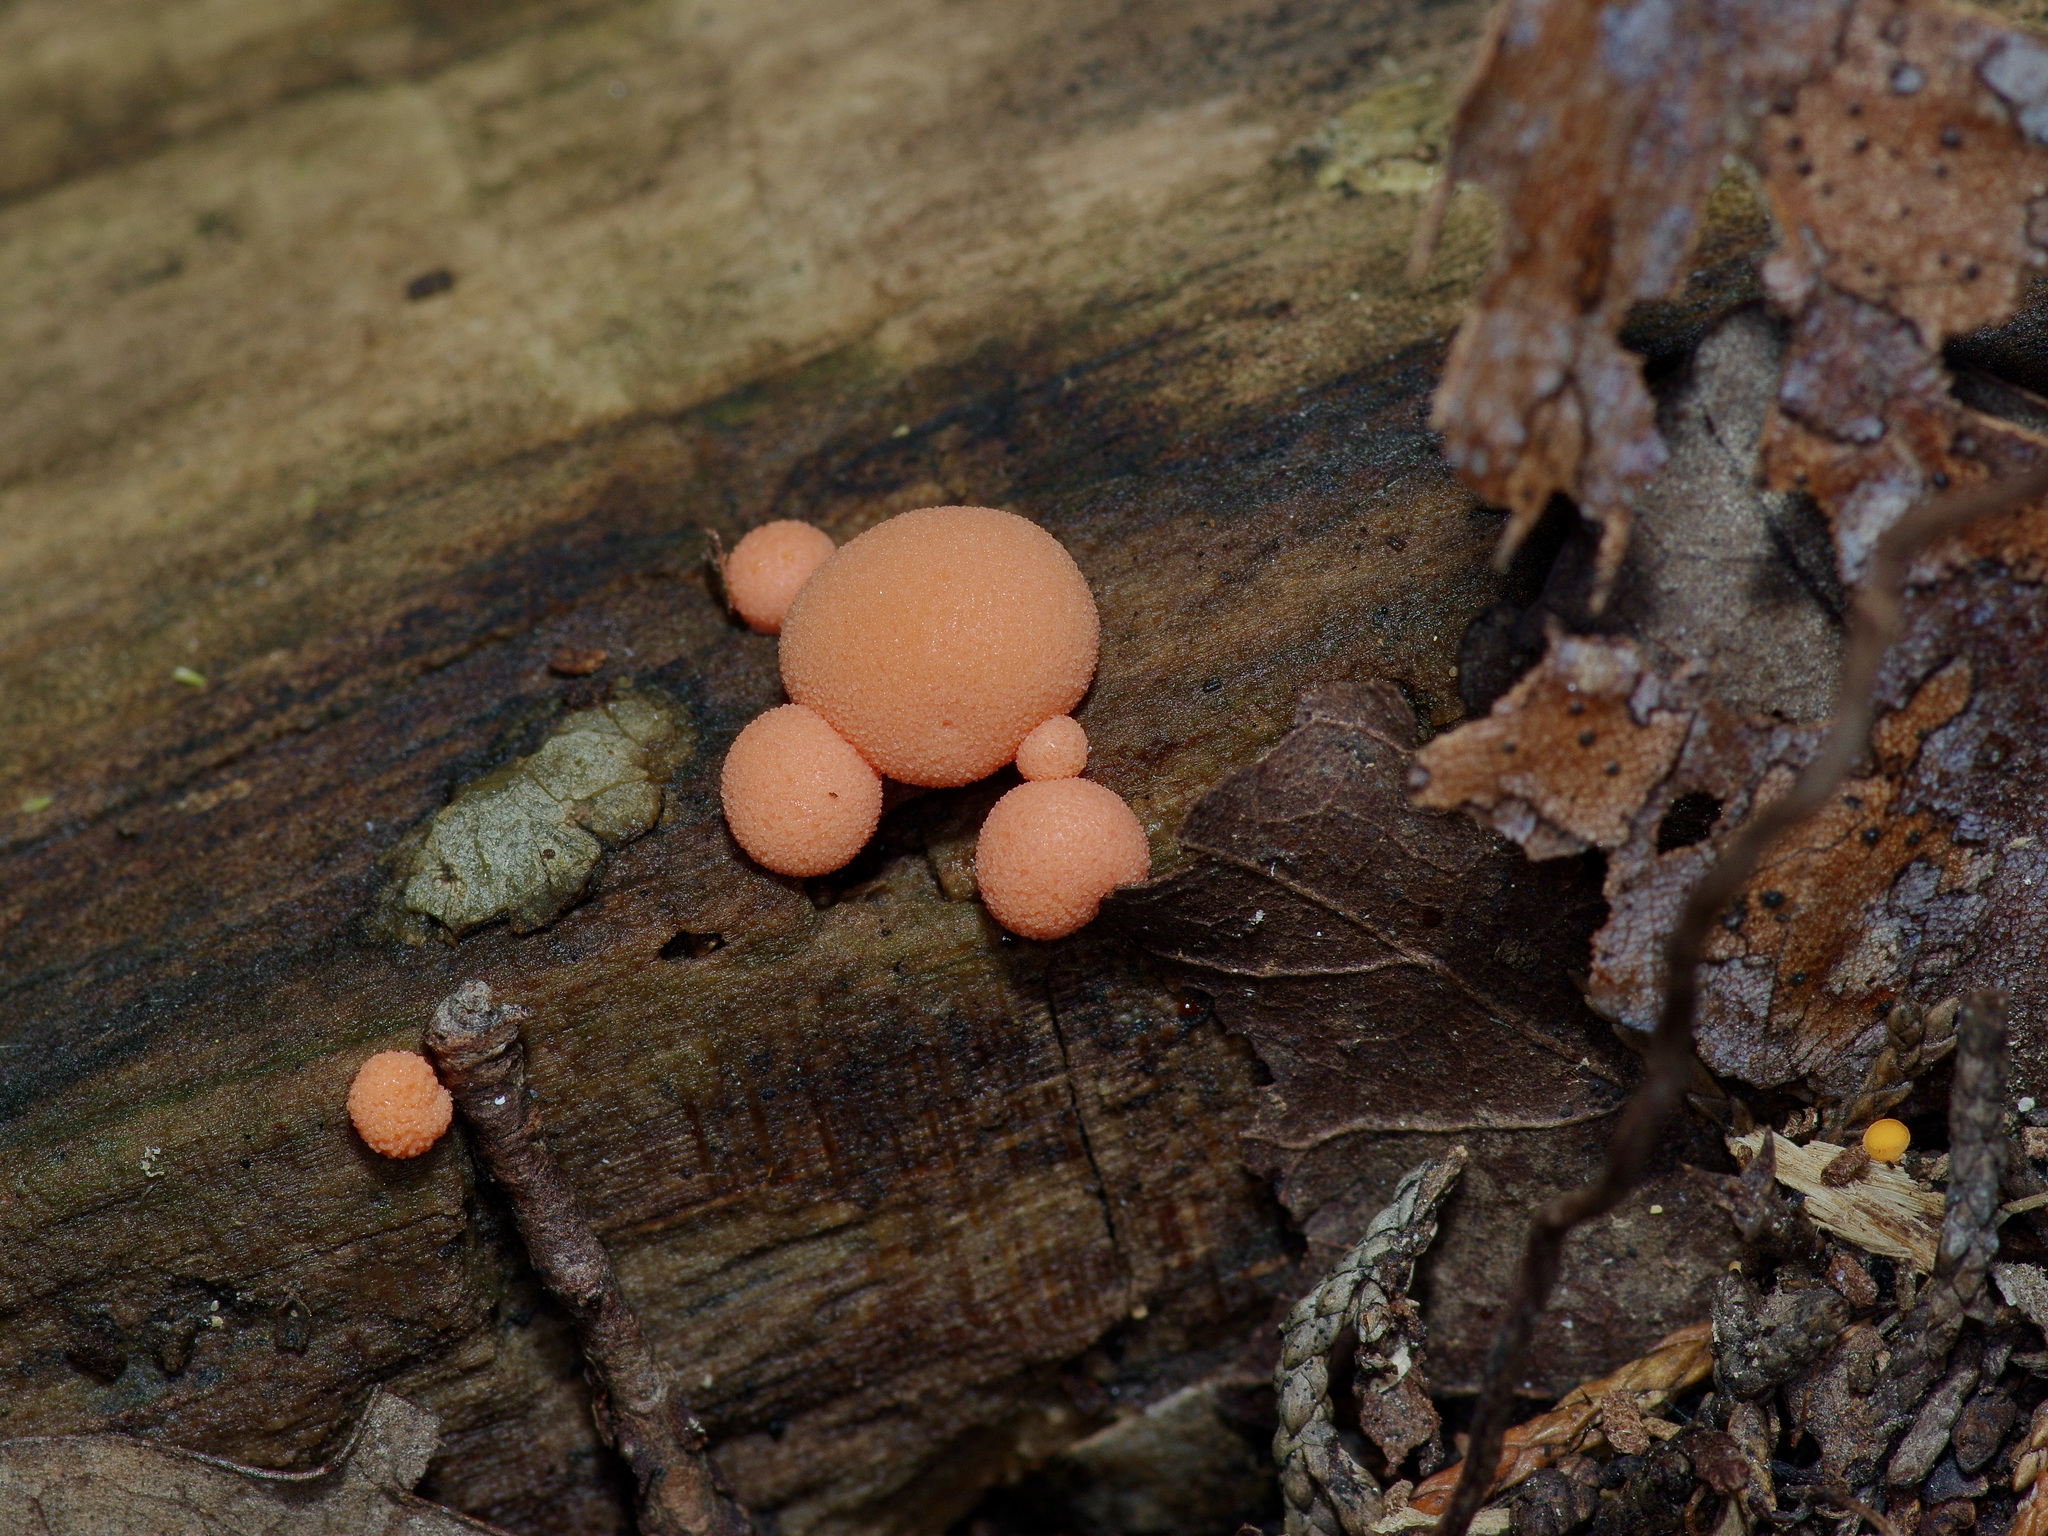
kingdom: Protozoa
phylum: Mycetozoa
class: Myxomycetes
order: Cribrariales
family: Tubiferaceae
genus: Lycogala
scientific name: Lycogala epidendrum
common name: Wolf's milk
